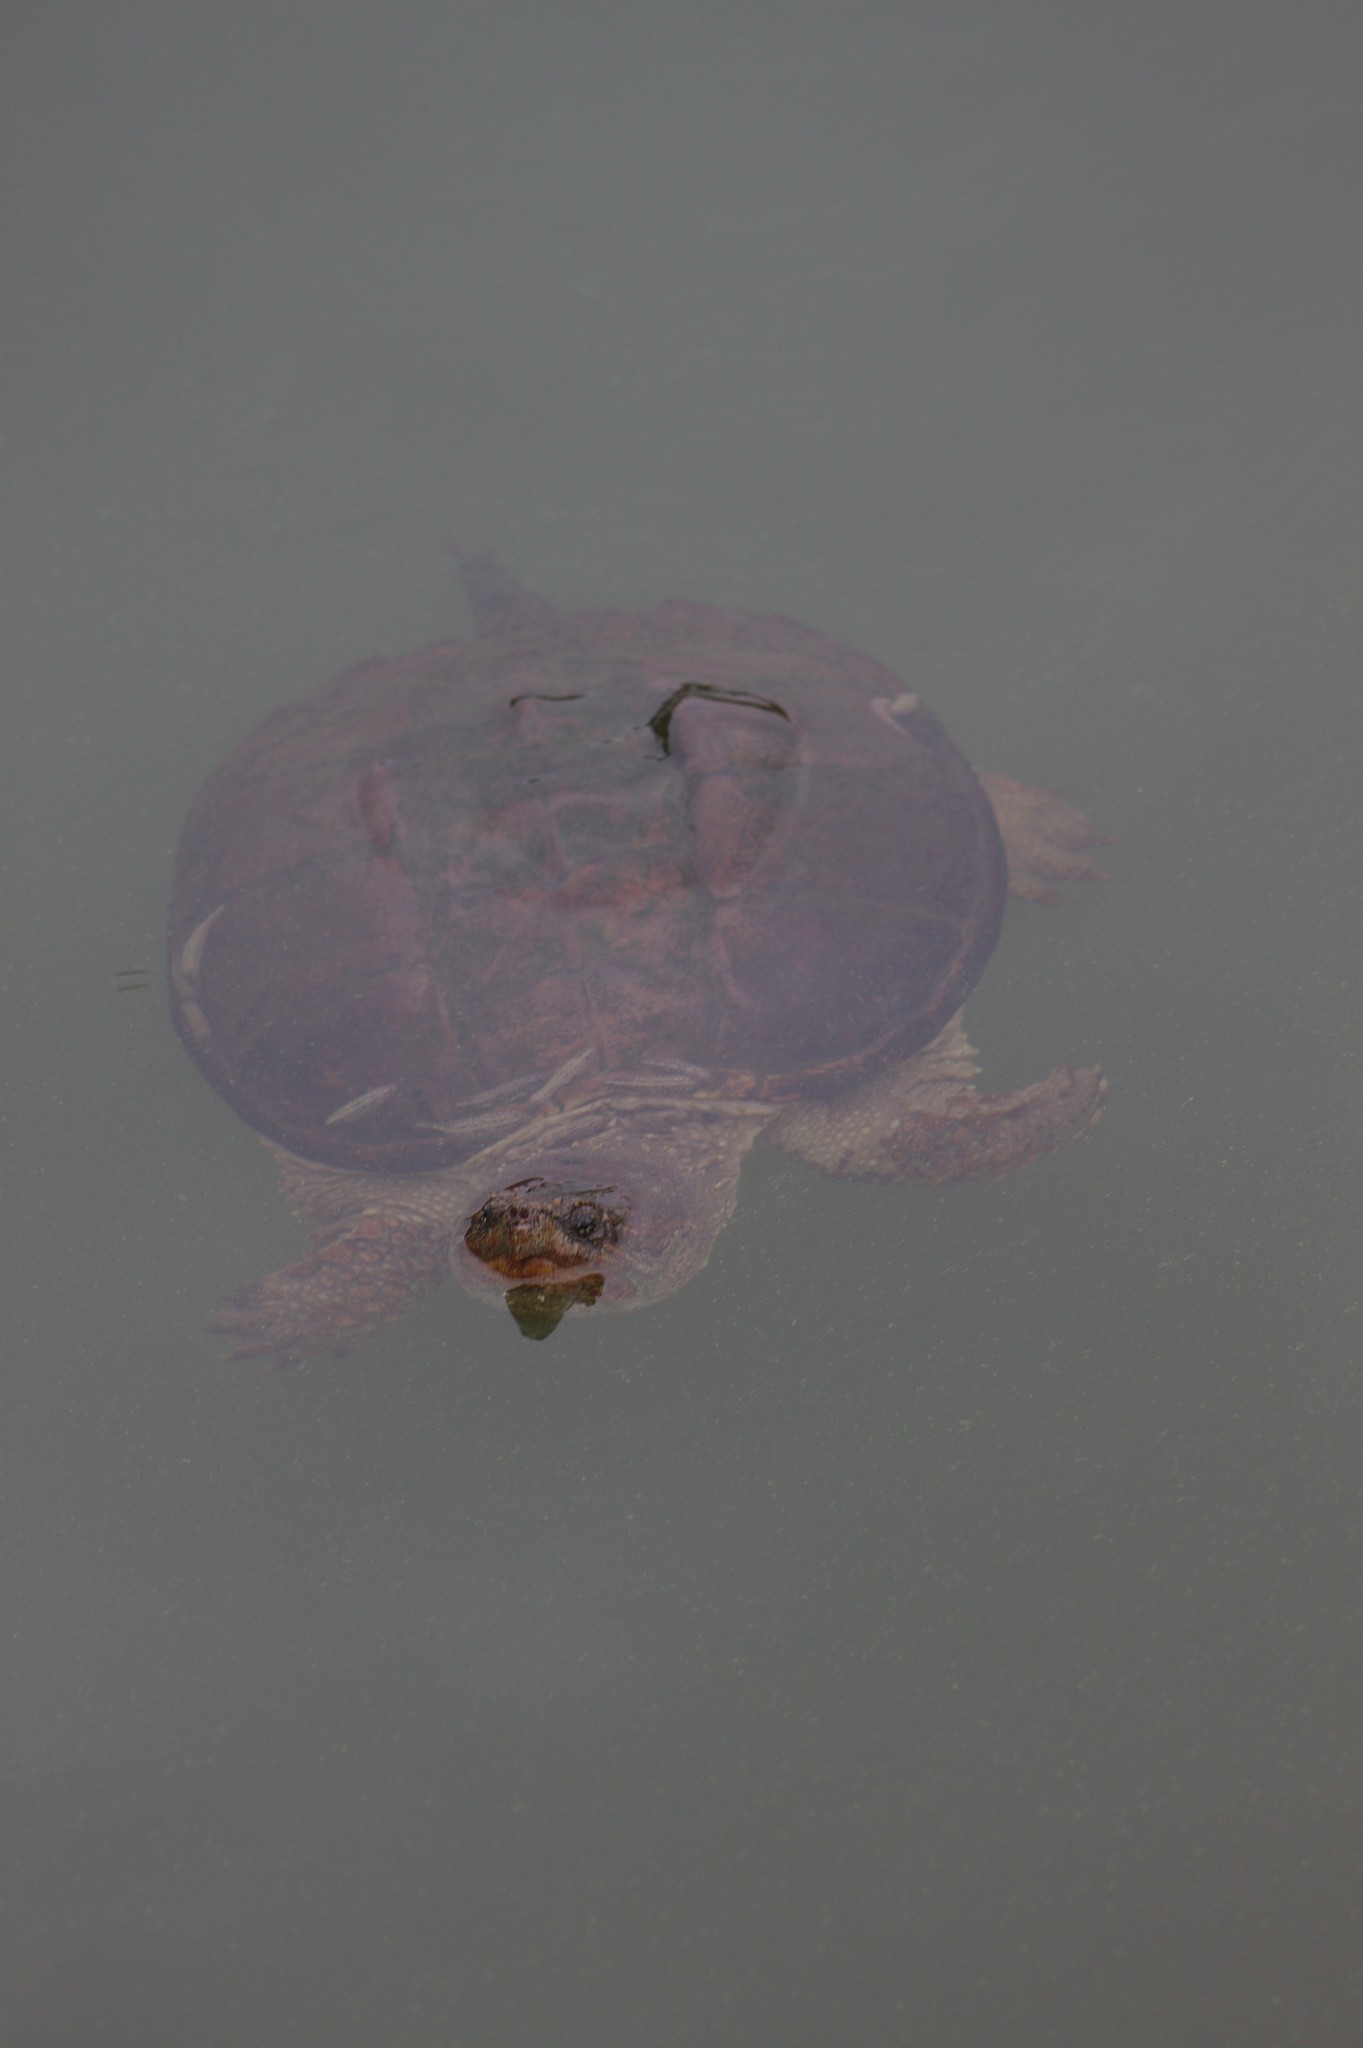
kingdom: Animalia
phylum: Chordata
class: Testudines
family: Chelydridae
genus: Chelydra
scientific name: Chelydra serpentina
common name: Common snapping turtle
